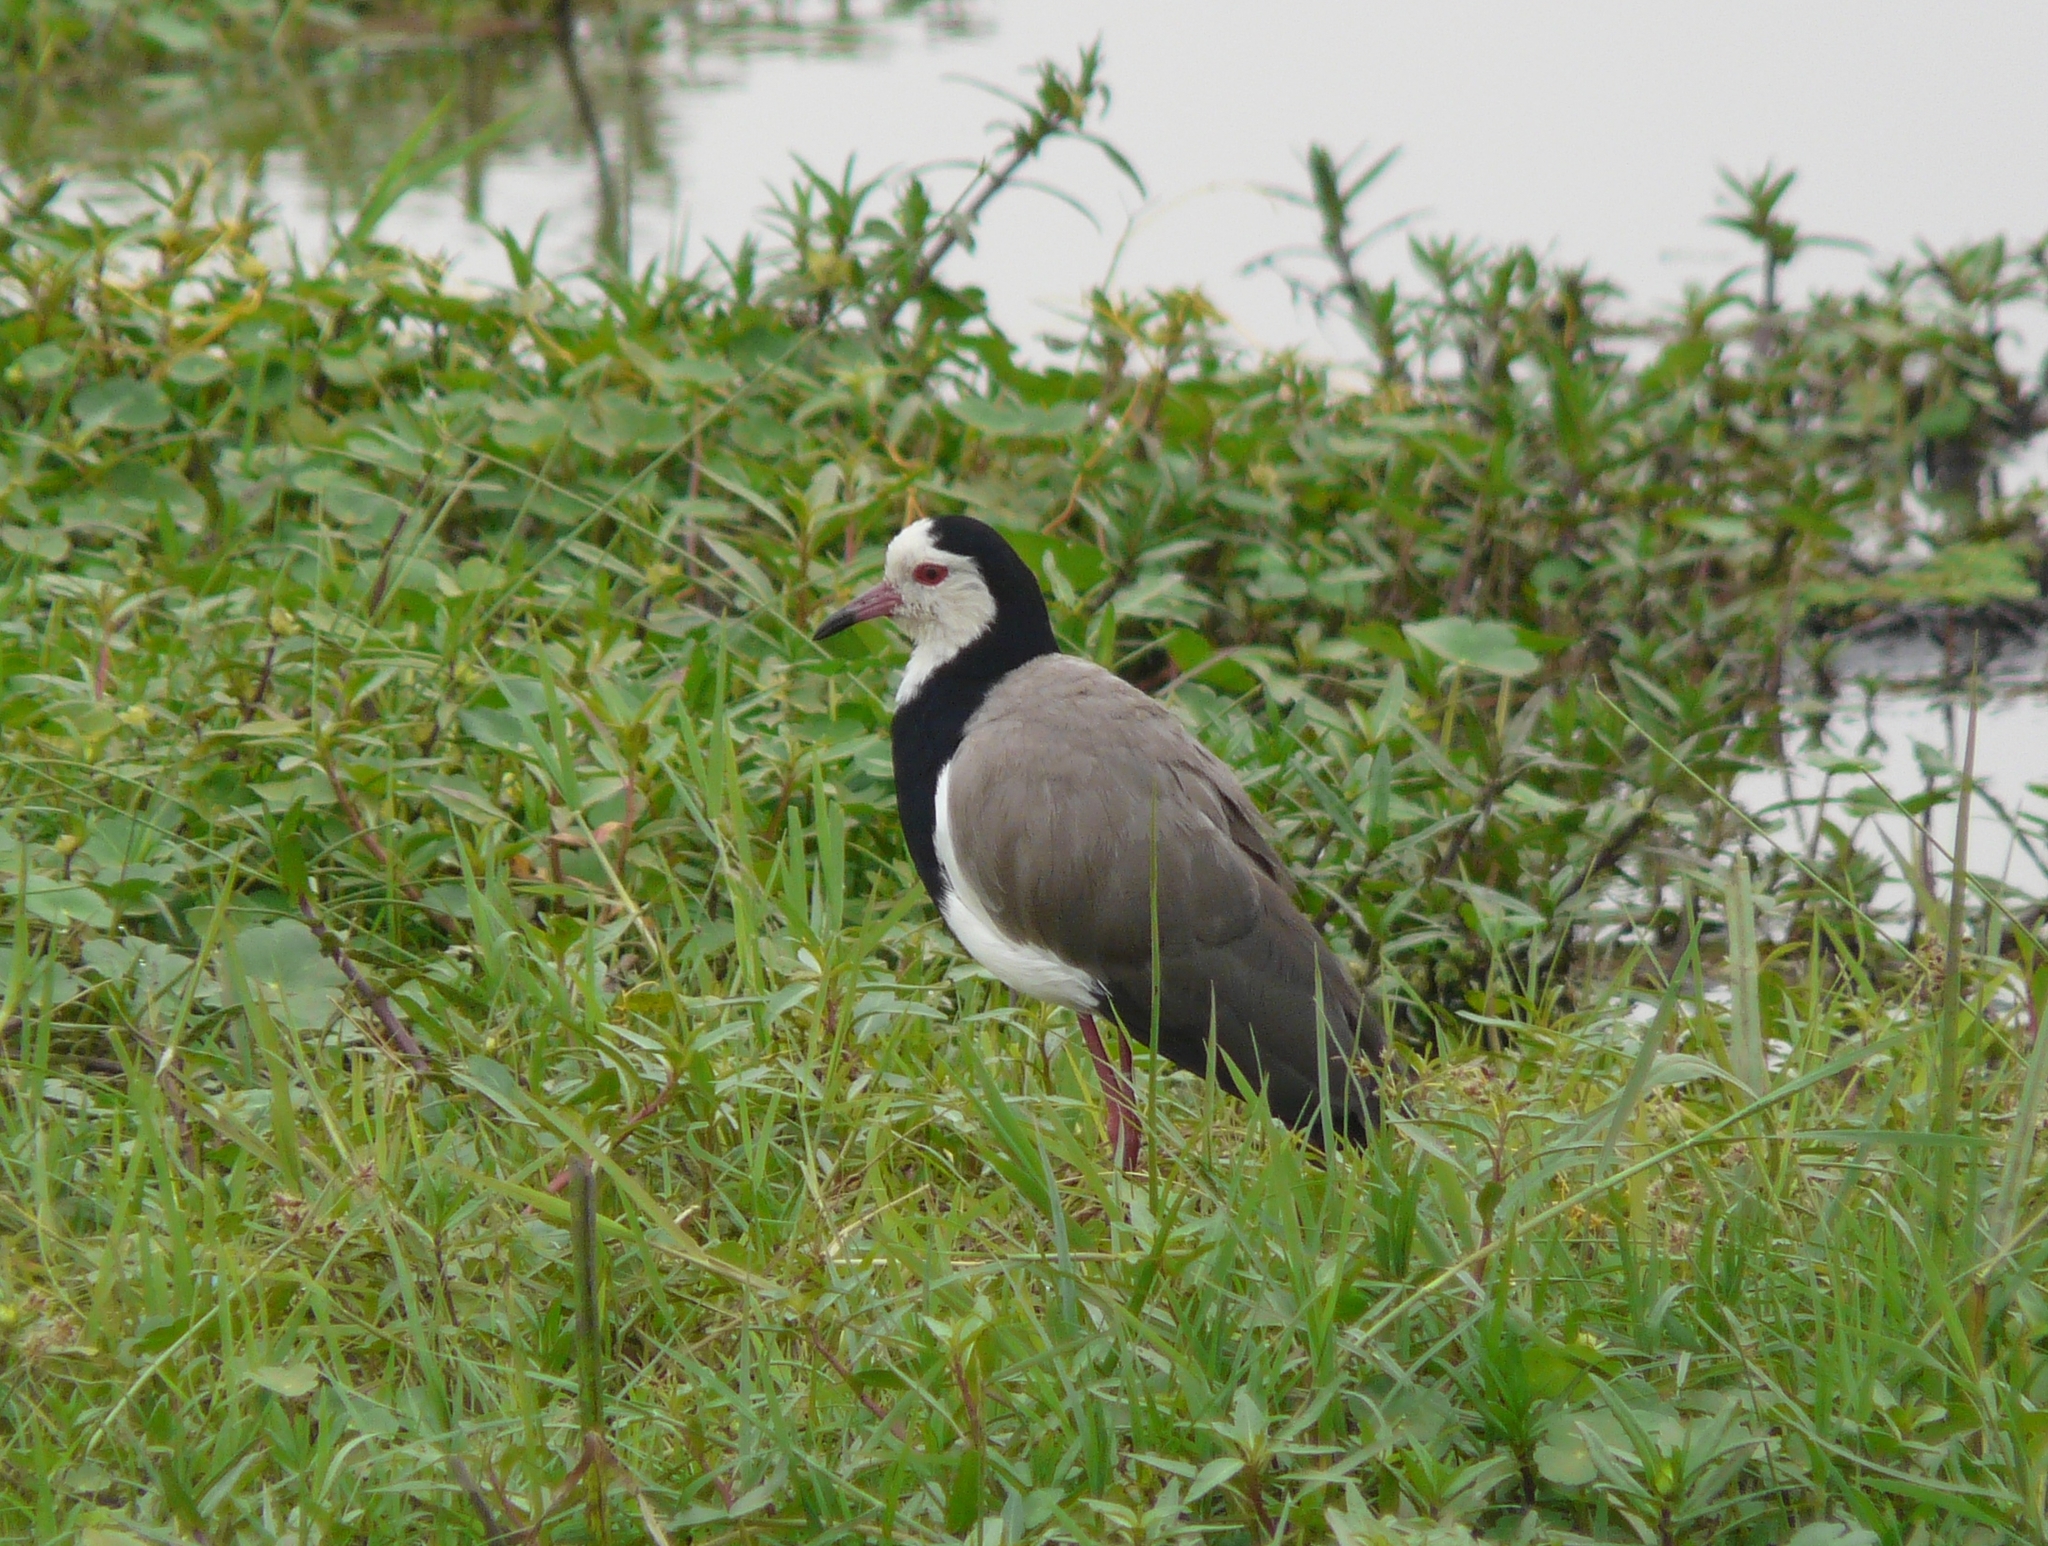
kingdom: Animalia
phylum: Chordata
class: Aves
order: Charadriiformes
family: Charadriidae
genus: Vanellus
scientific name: Vanellus crassirostris
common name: Long-toed lapwing
